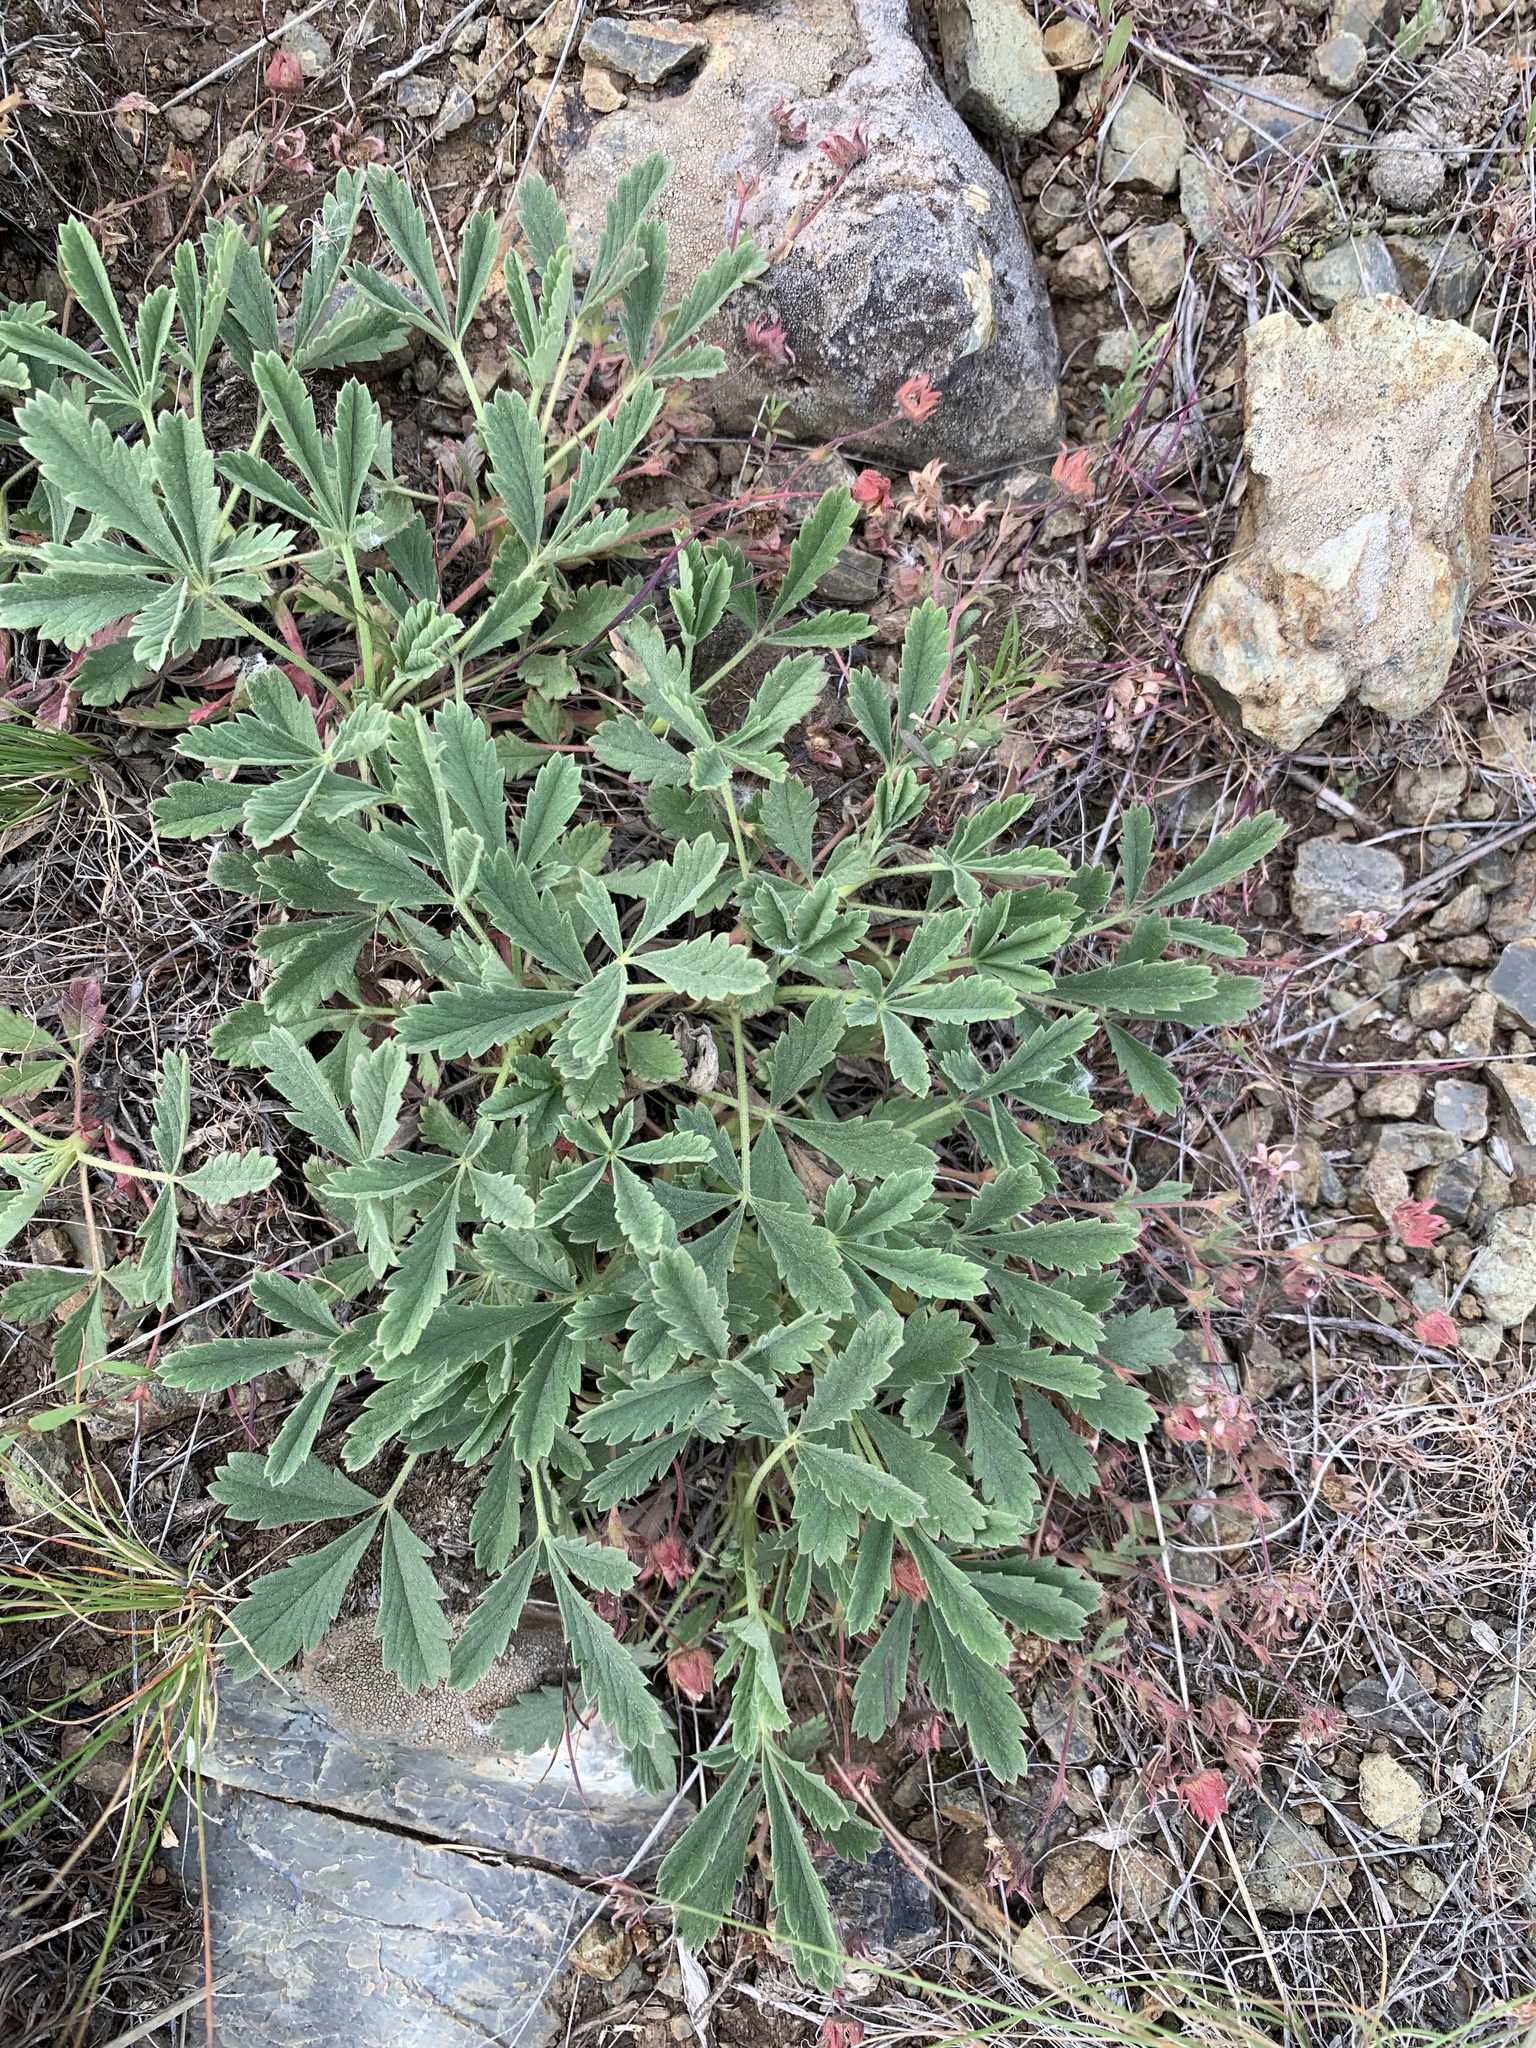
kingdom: Plantae
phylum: Tracheophyta
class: Magnoliopsida
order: Rosales
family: Rosaceae
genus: Potentilla
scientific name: Potentilla glaucescens
